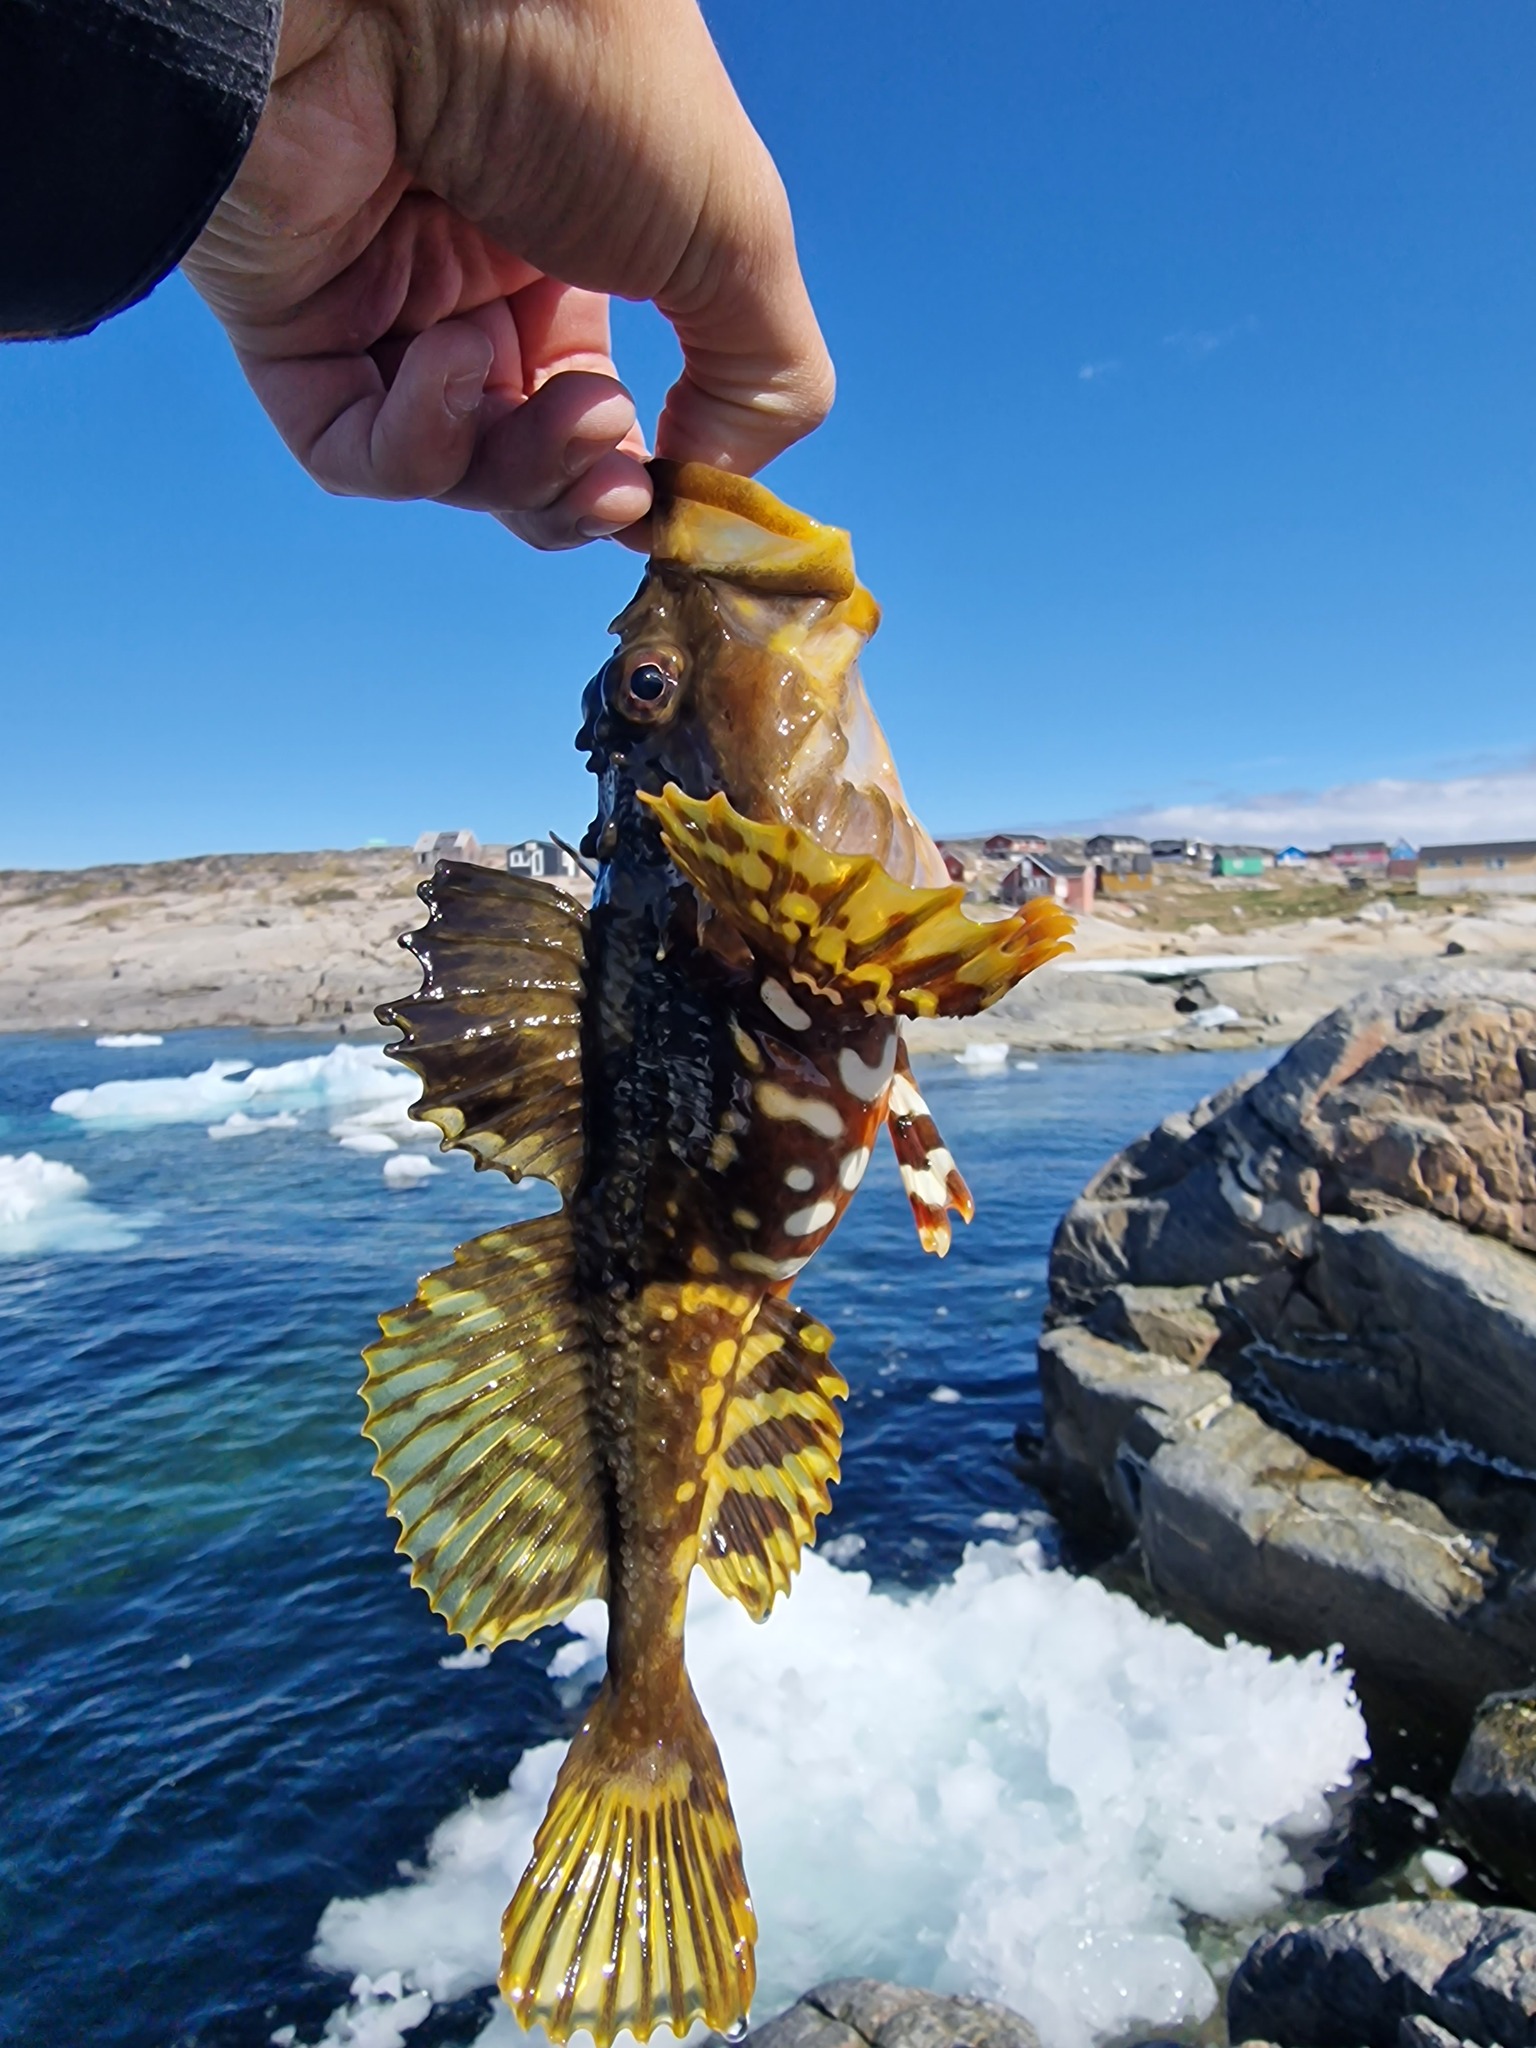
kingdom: Animalia
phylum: Chordata
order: Scorpaeniformes
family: Cottidae
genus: Myoxocephalus
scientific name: Myoxocephalus scorpius
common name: Shorthorn sculpin
